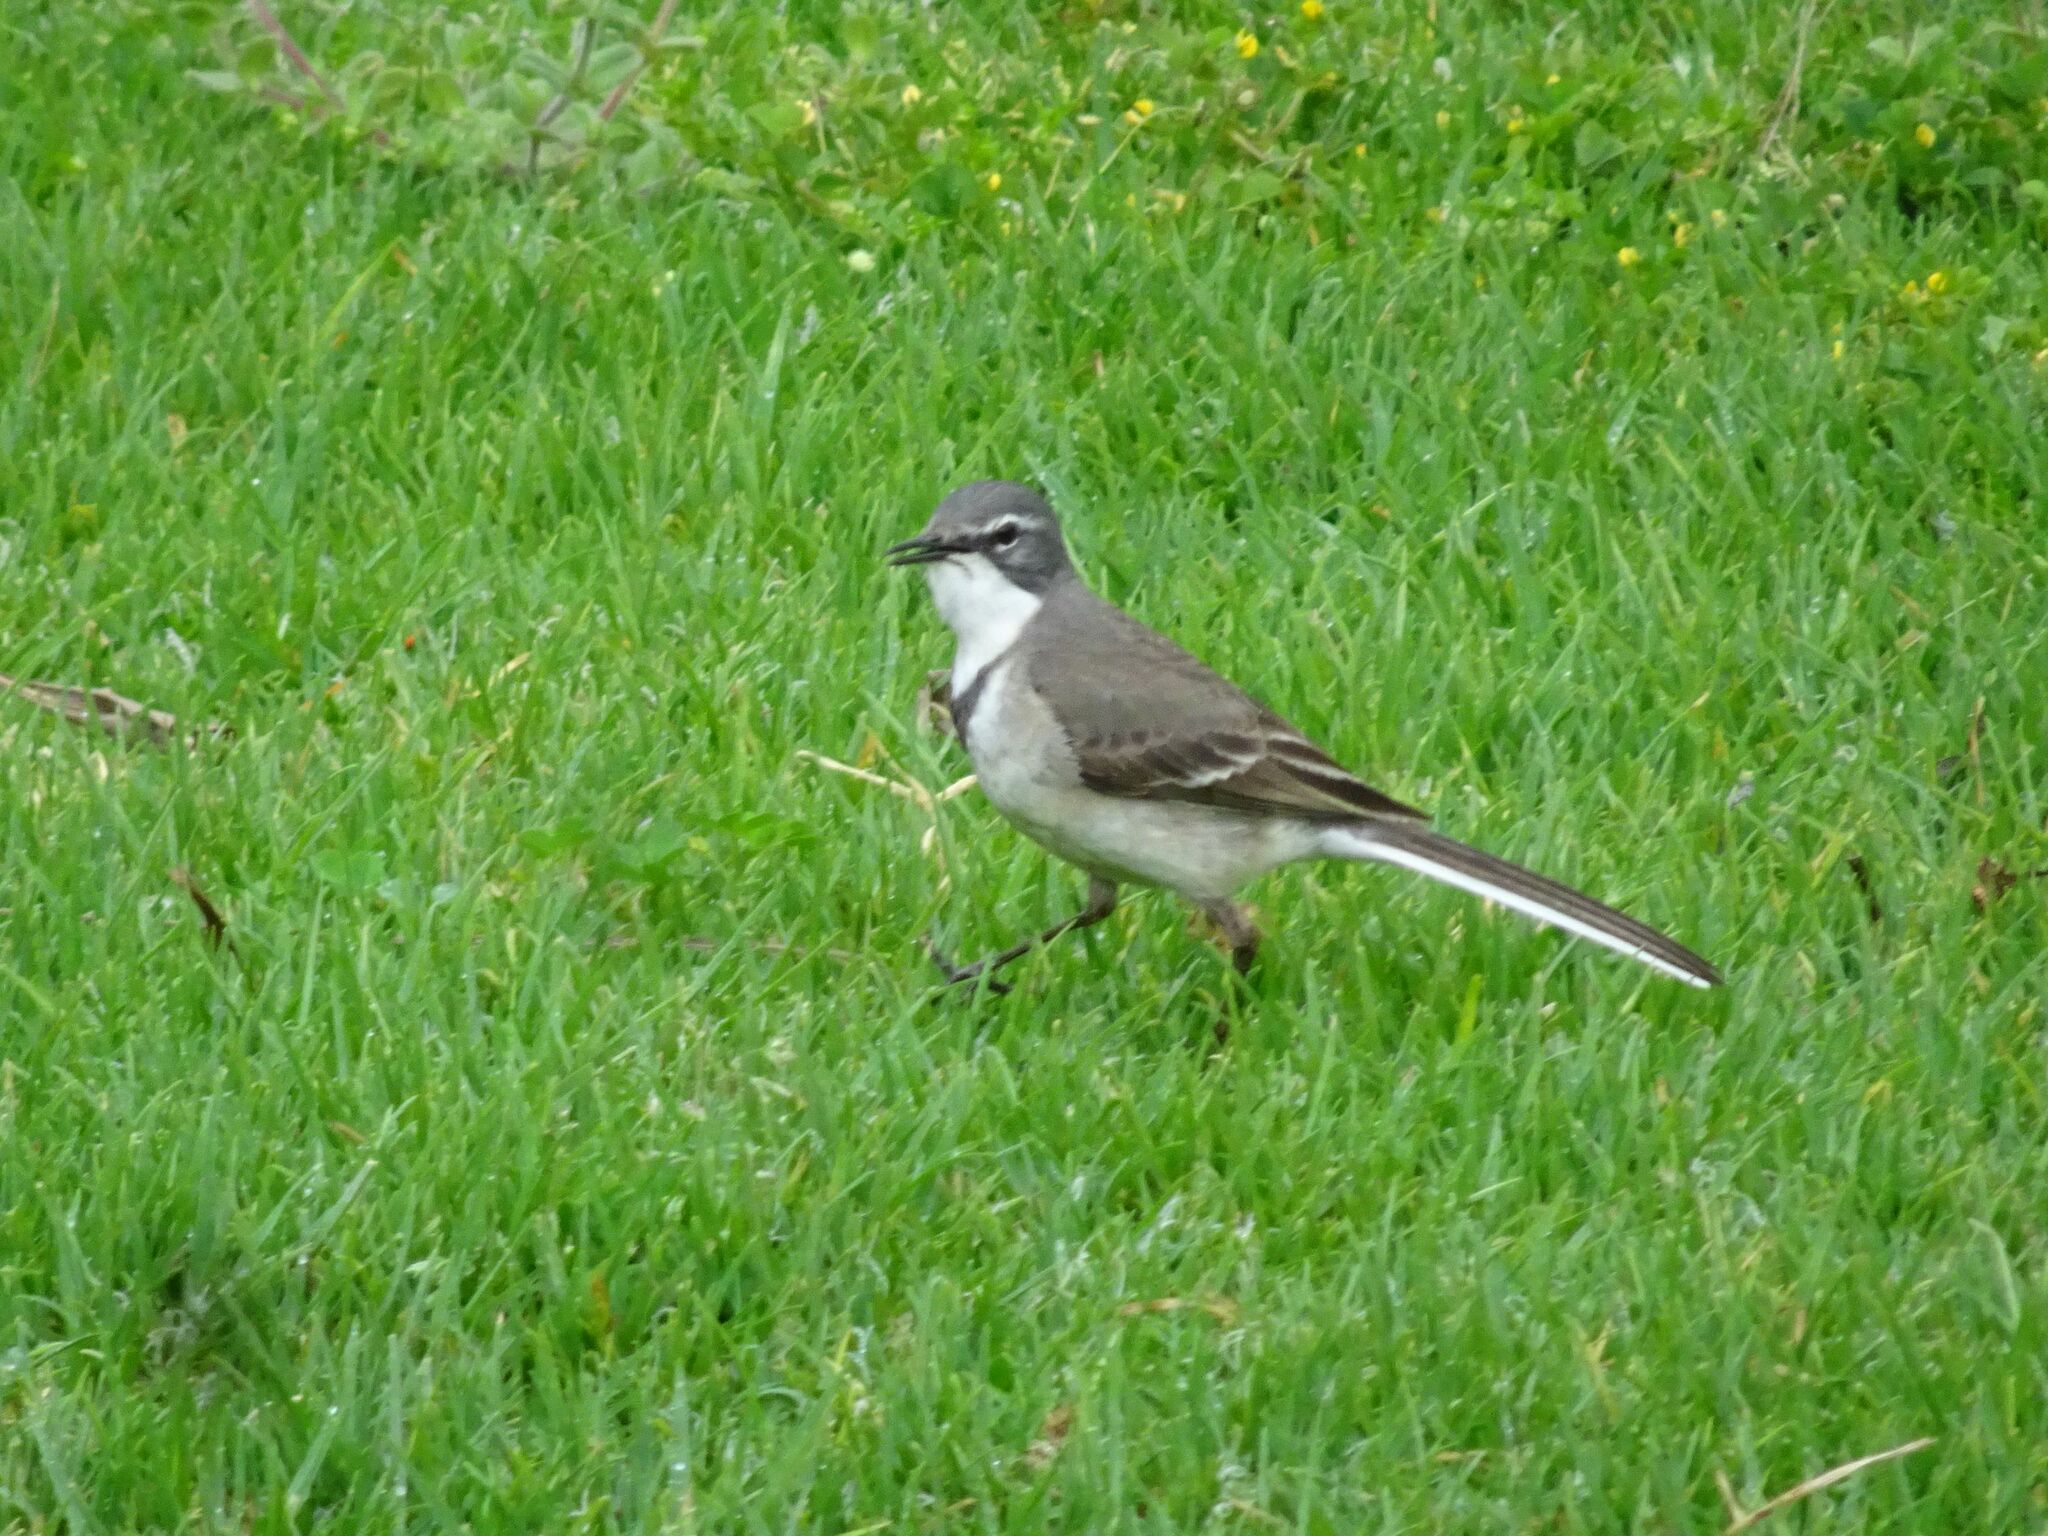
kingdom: Animalia
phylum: Chordata
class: Aves
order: Passeriformes
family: Motacillidae
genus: Motacilla
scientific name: Motacilla capensis
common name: Cape wagtail
